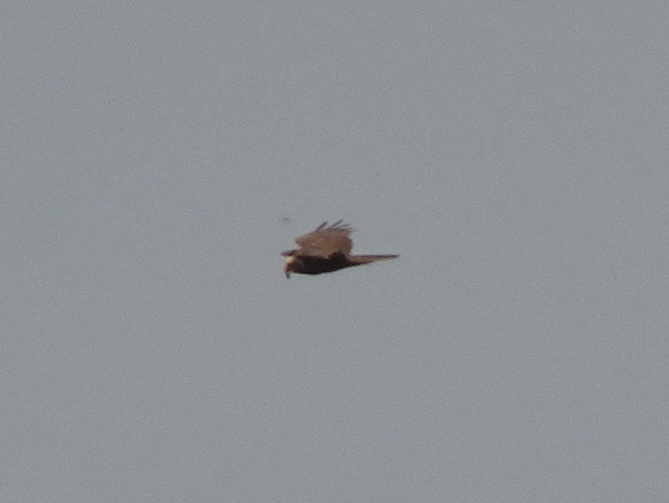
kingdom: Animalia
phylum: Chordata
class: Aves
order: Accipitriformes
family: Accipitridae
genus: Circus
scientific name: Circus aeruginosus
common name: Western marsh harrier
